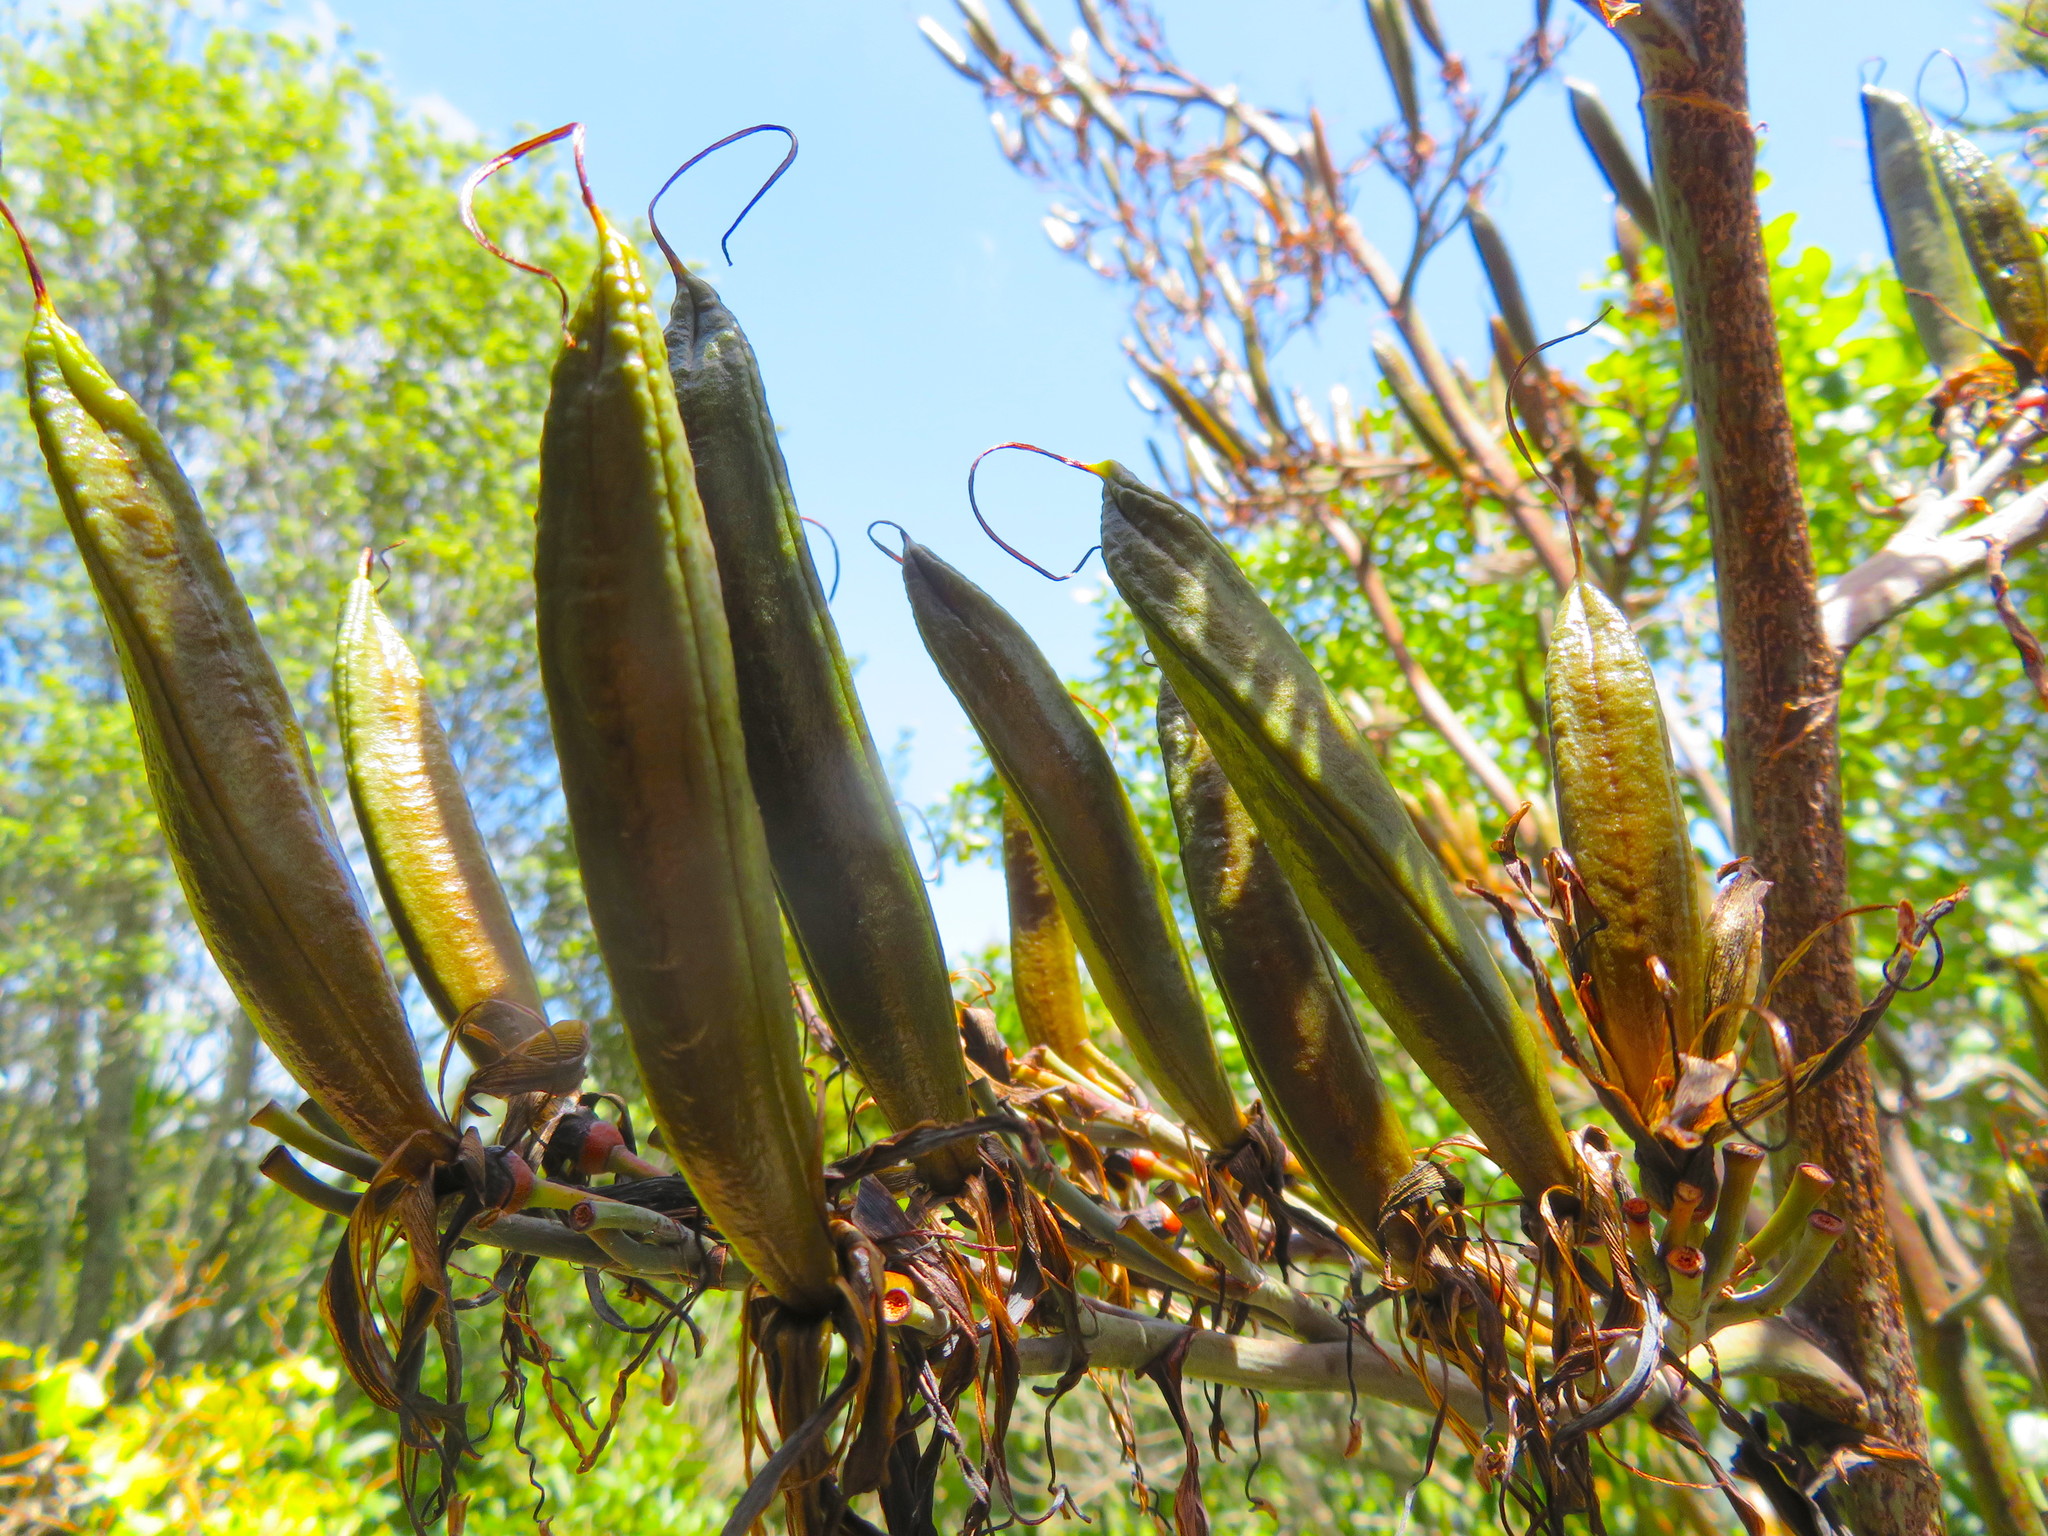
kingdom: Plantae
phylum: Tracheophyta
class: Liliopsida
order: Asparagales
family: Asphodelaceae
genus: Phormium
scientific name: Phormium tenax
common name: New zealand flax
